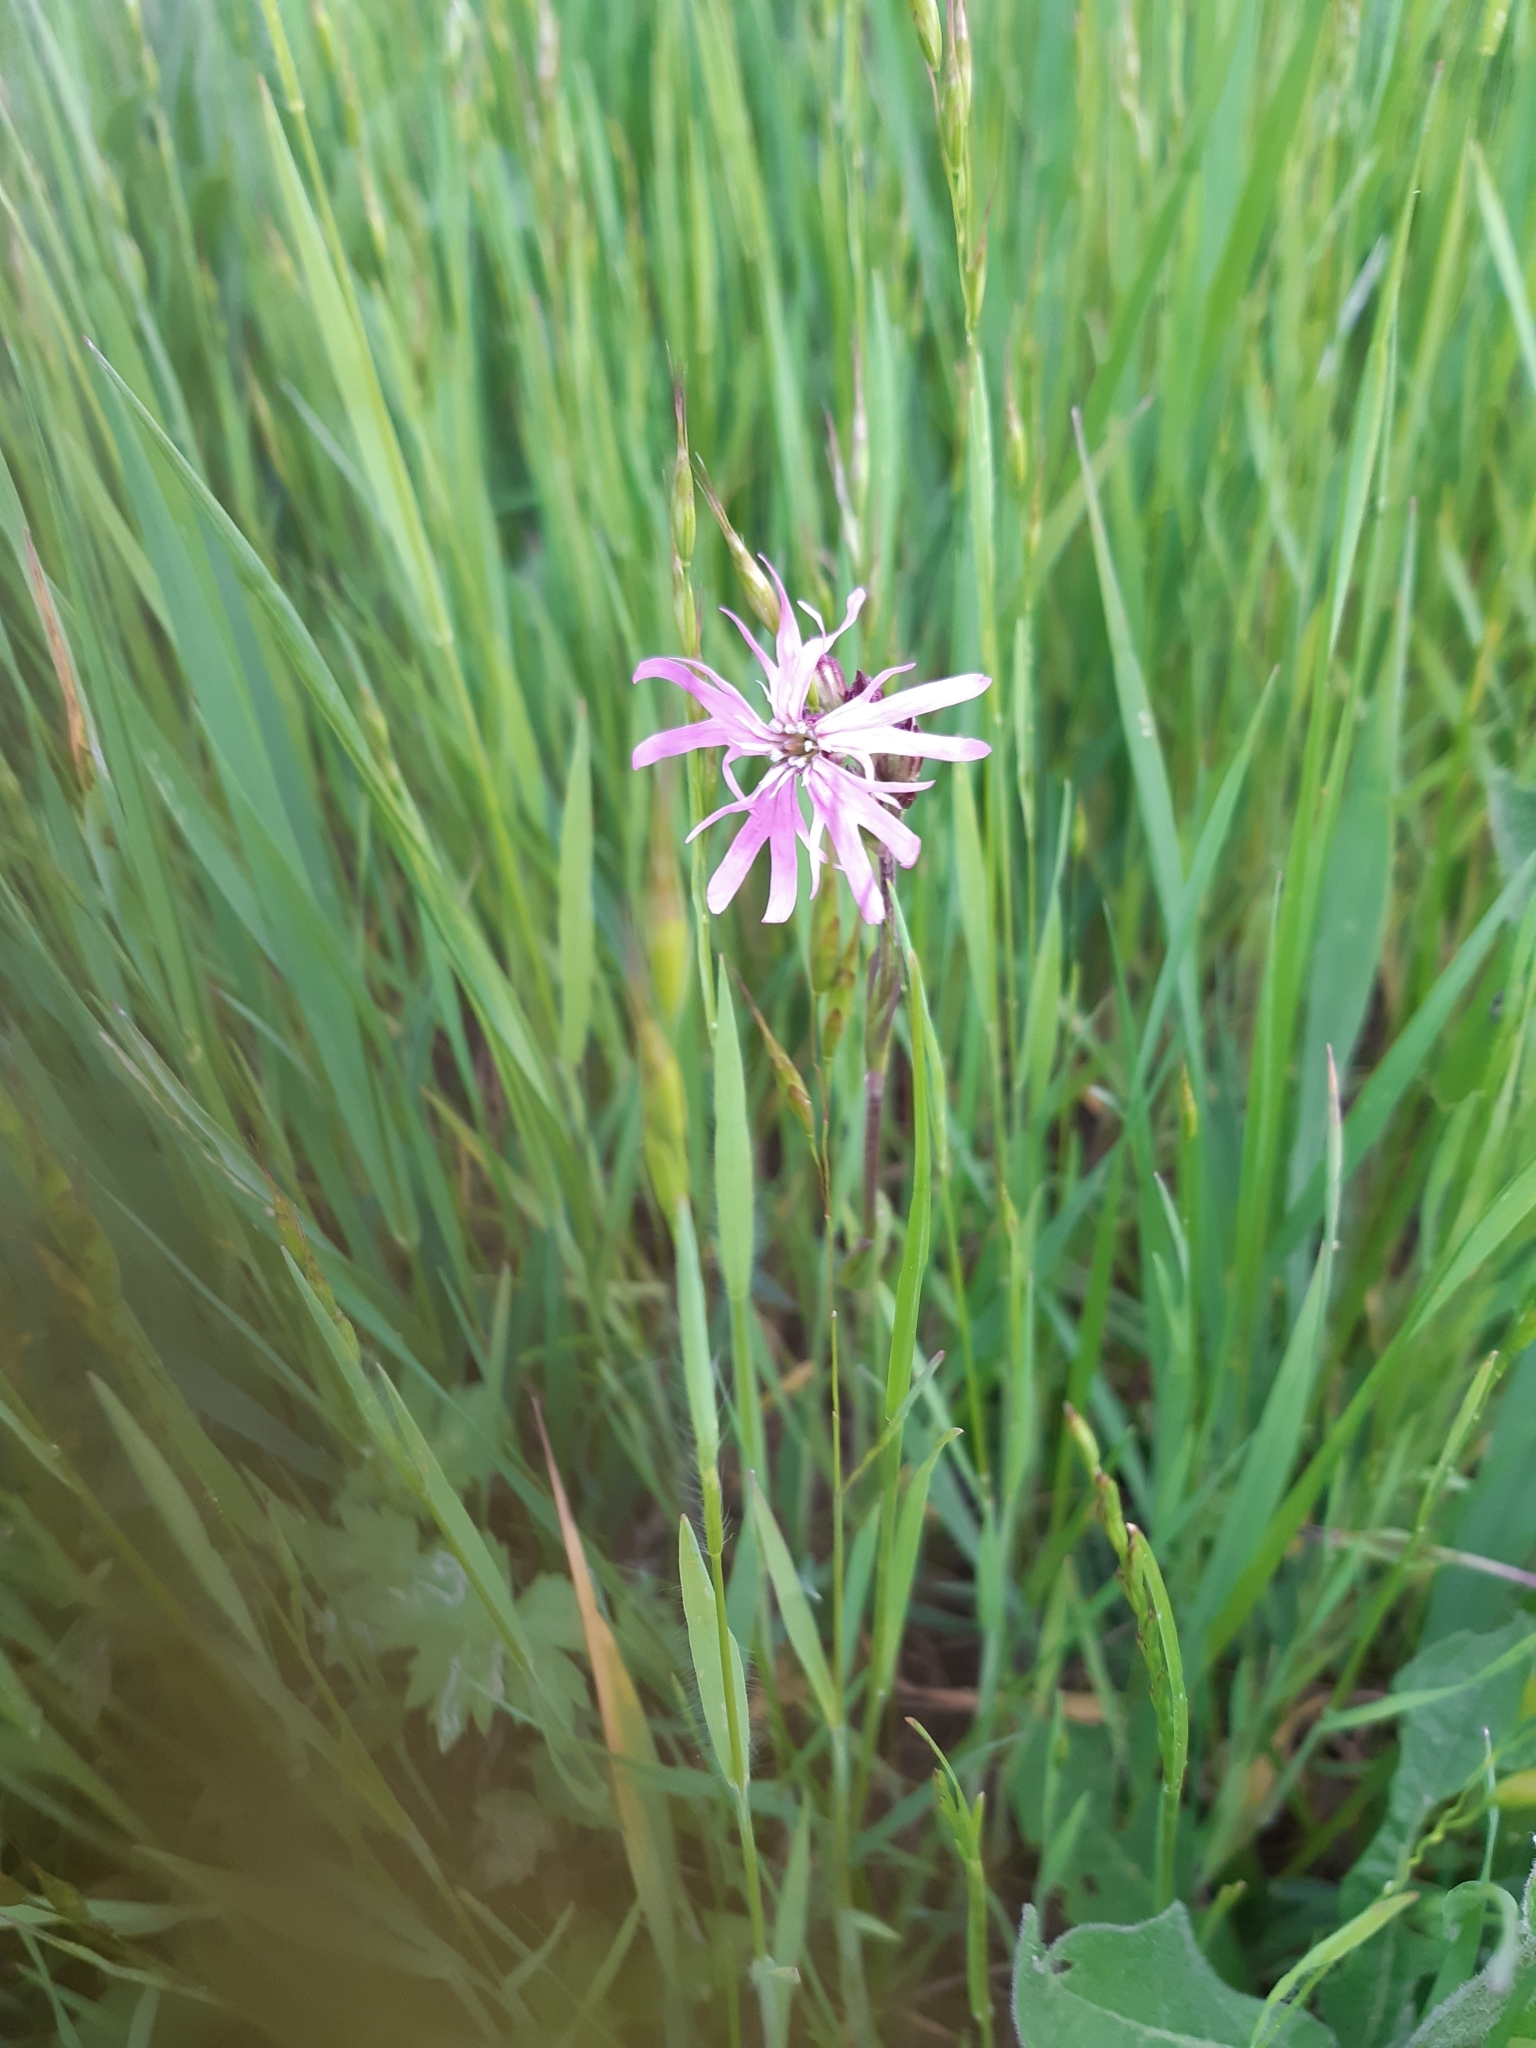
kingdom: Plantae
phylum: Tracheophyta
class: Magnoliopsida
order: Caryophyllales
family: Caryophyllaceae
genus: Silene
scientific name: Silene flos-cuculi
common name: Ragged-robin
